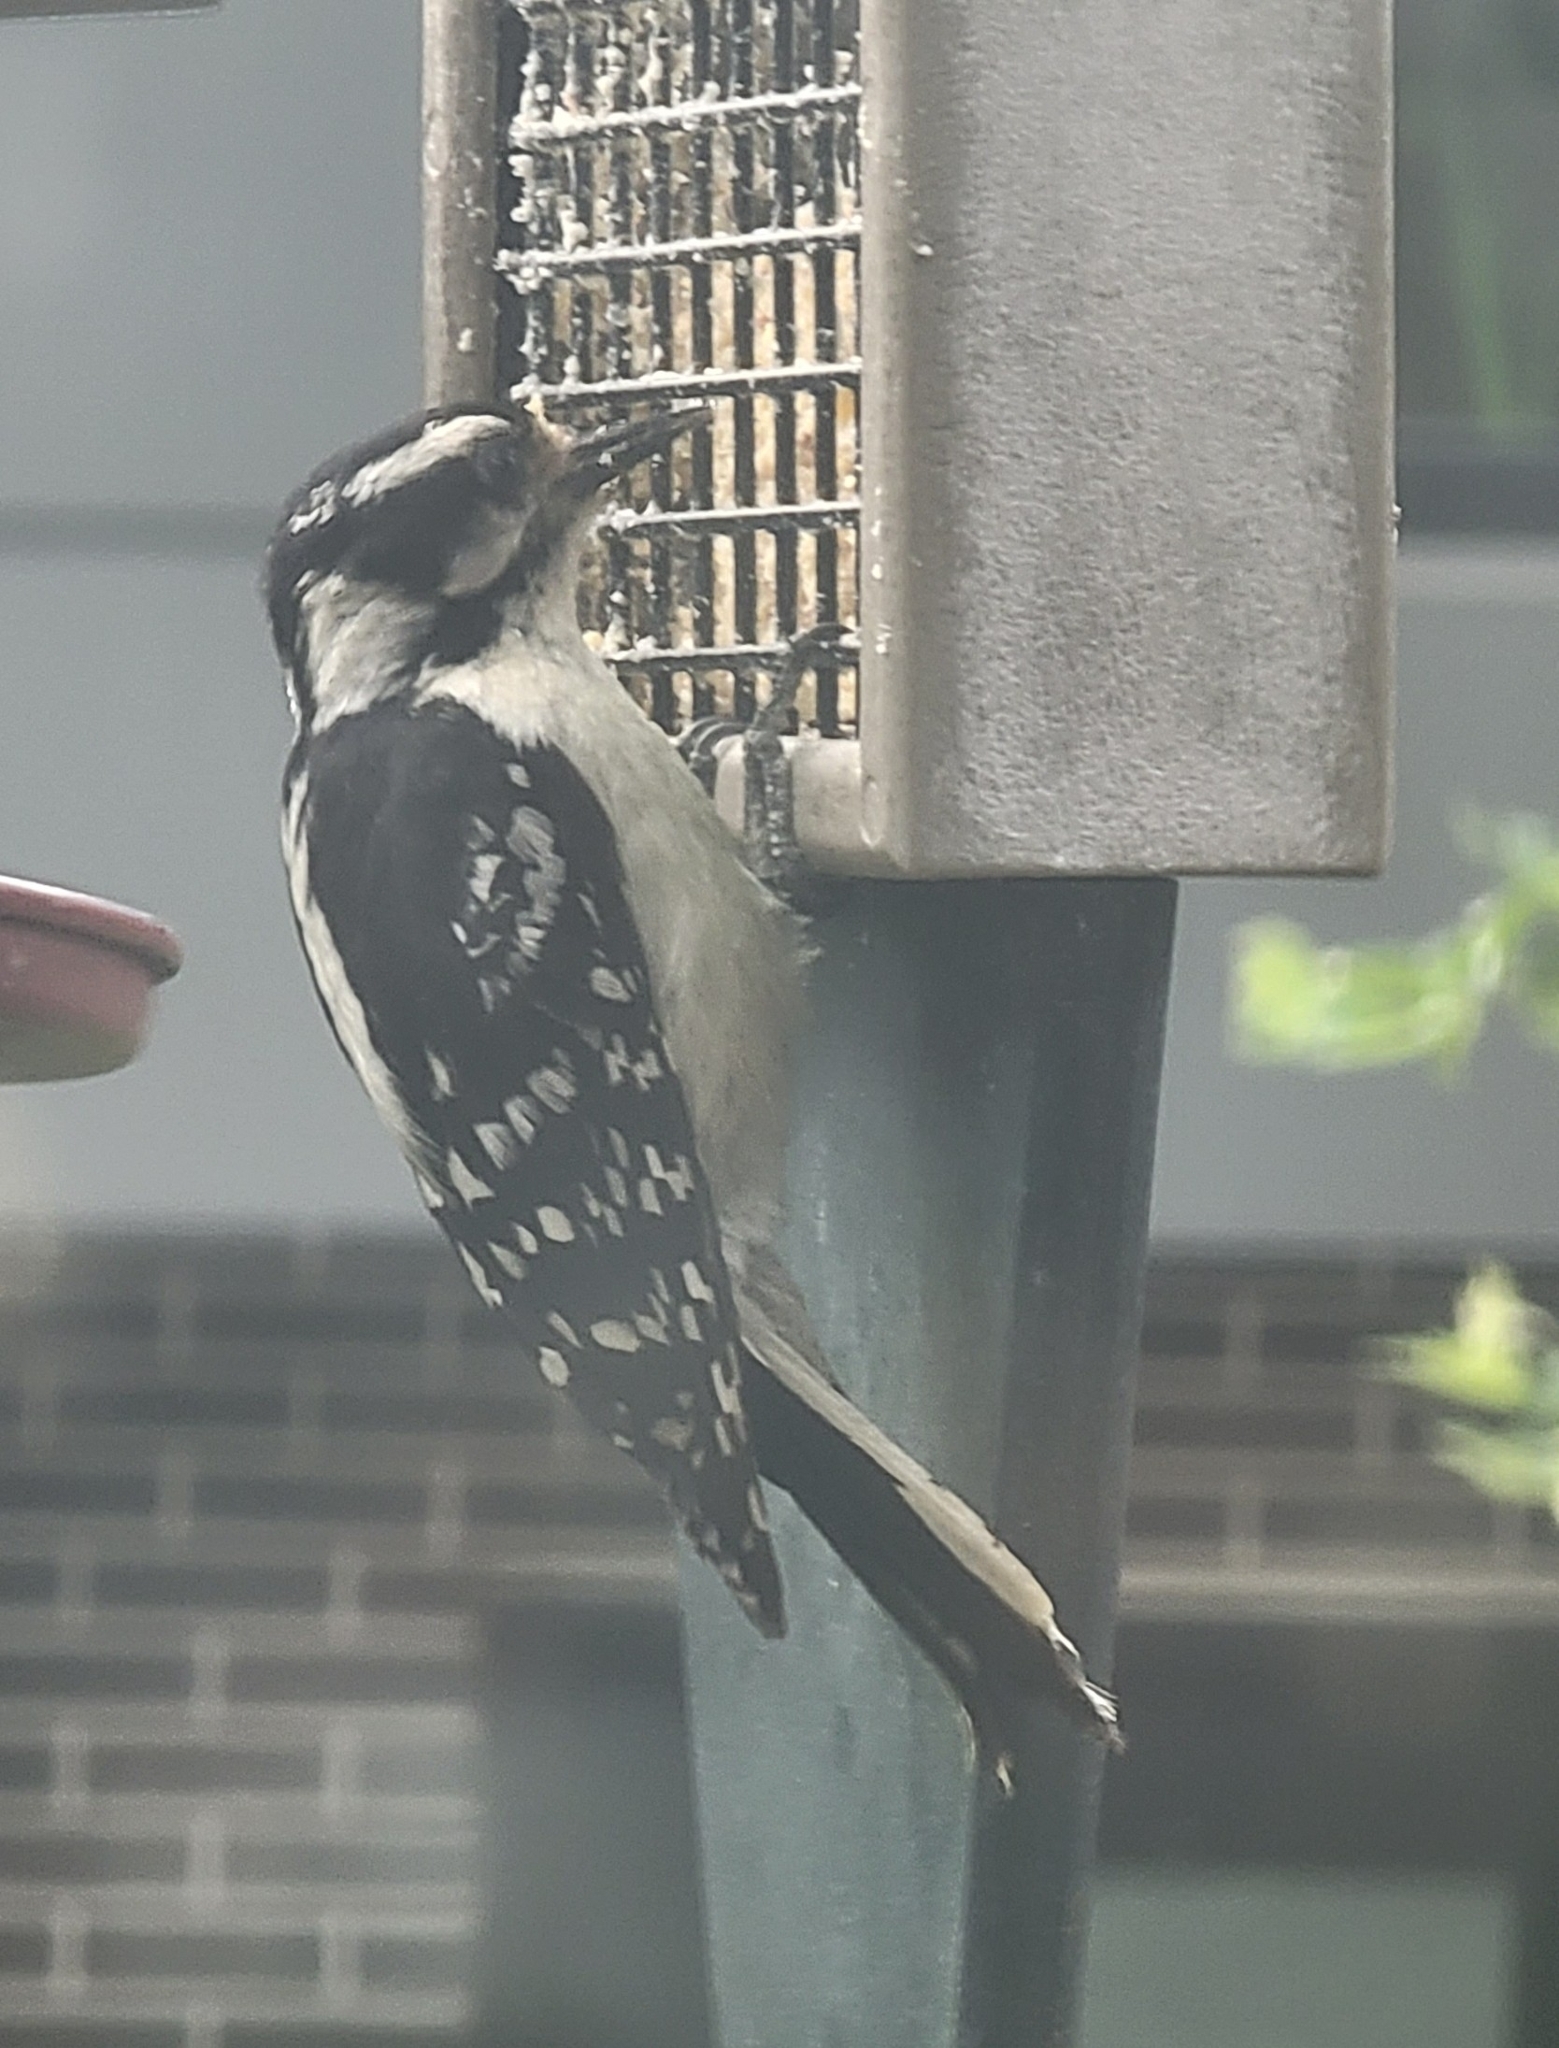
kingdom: Animalia
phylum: Chordata
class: Aves
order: Piciformes
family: Picidae
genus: Dryobates
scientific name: Dryobates pubescens
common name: Downy woodpecker
